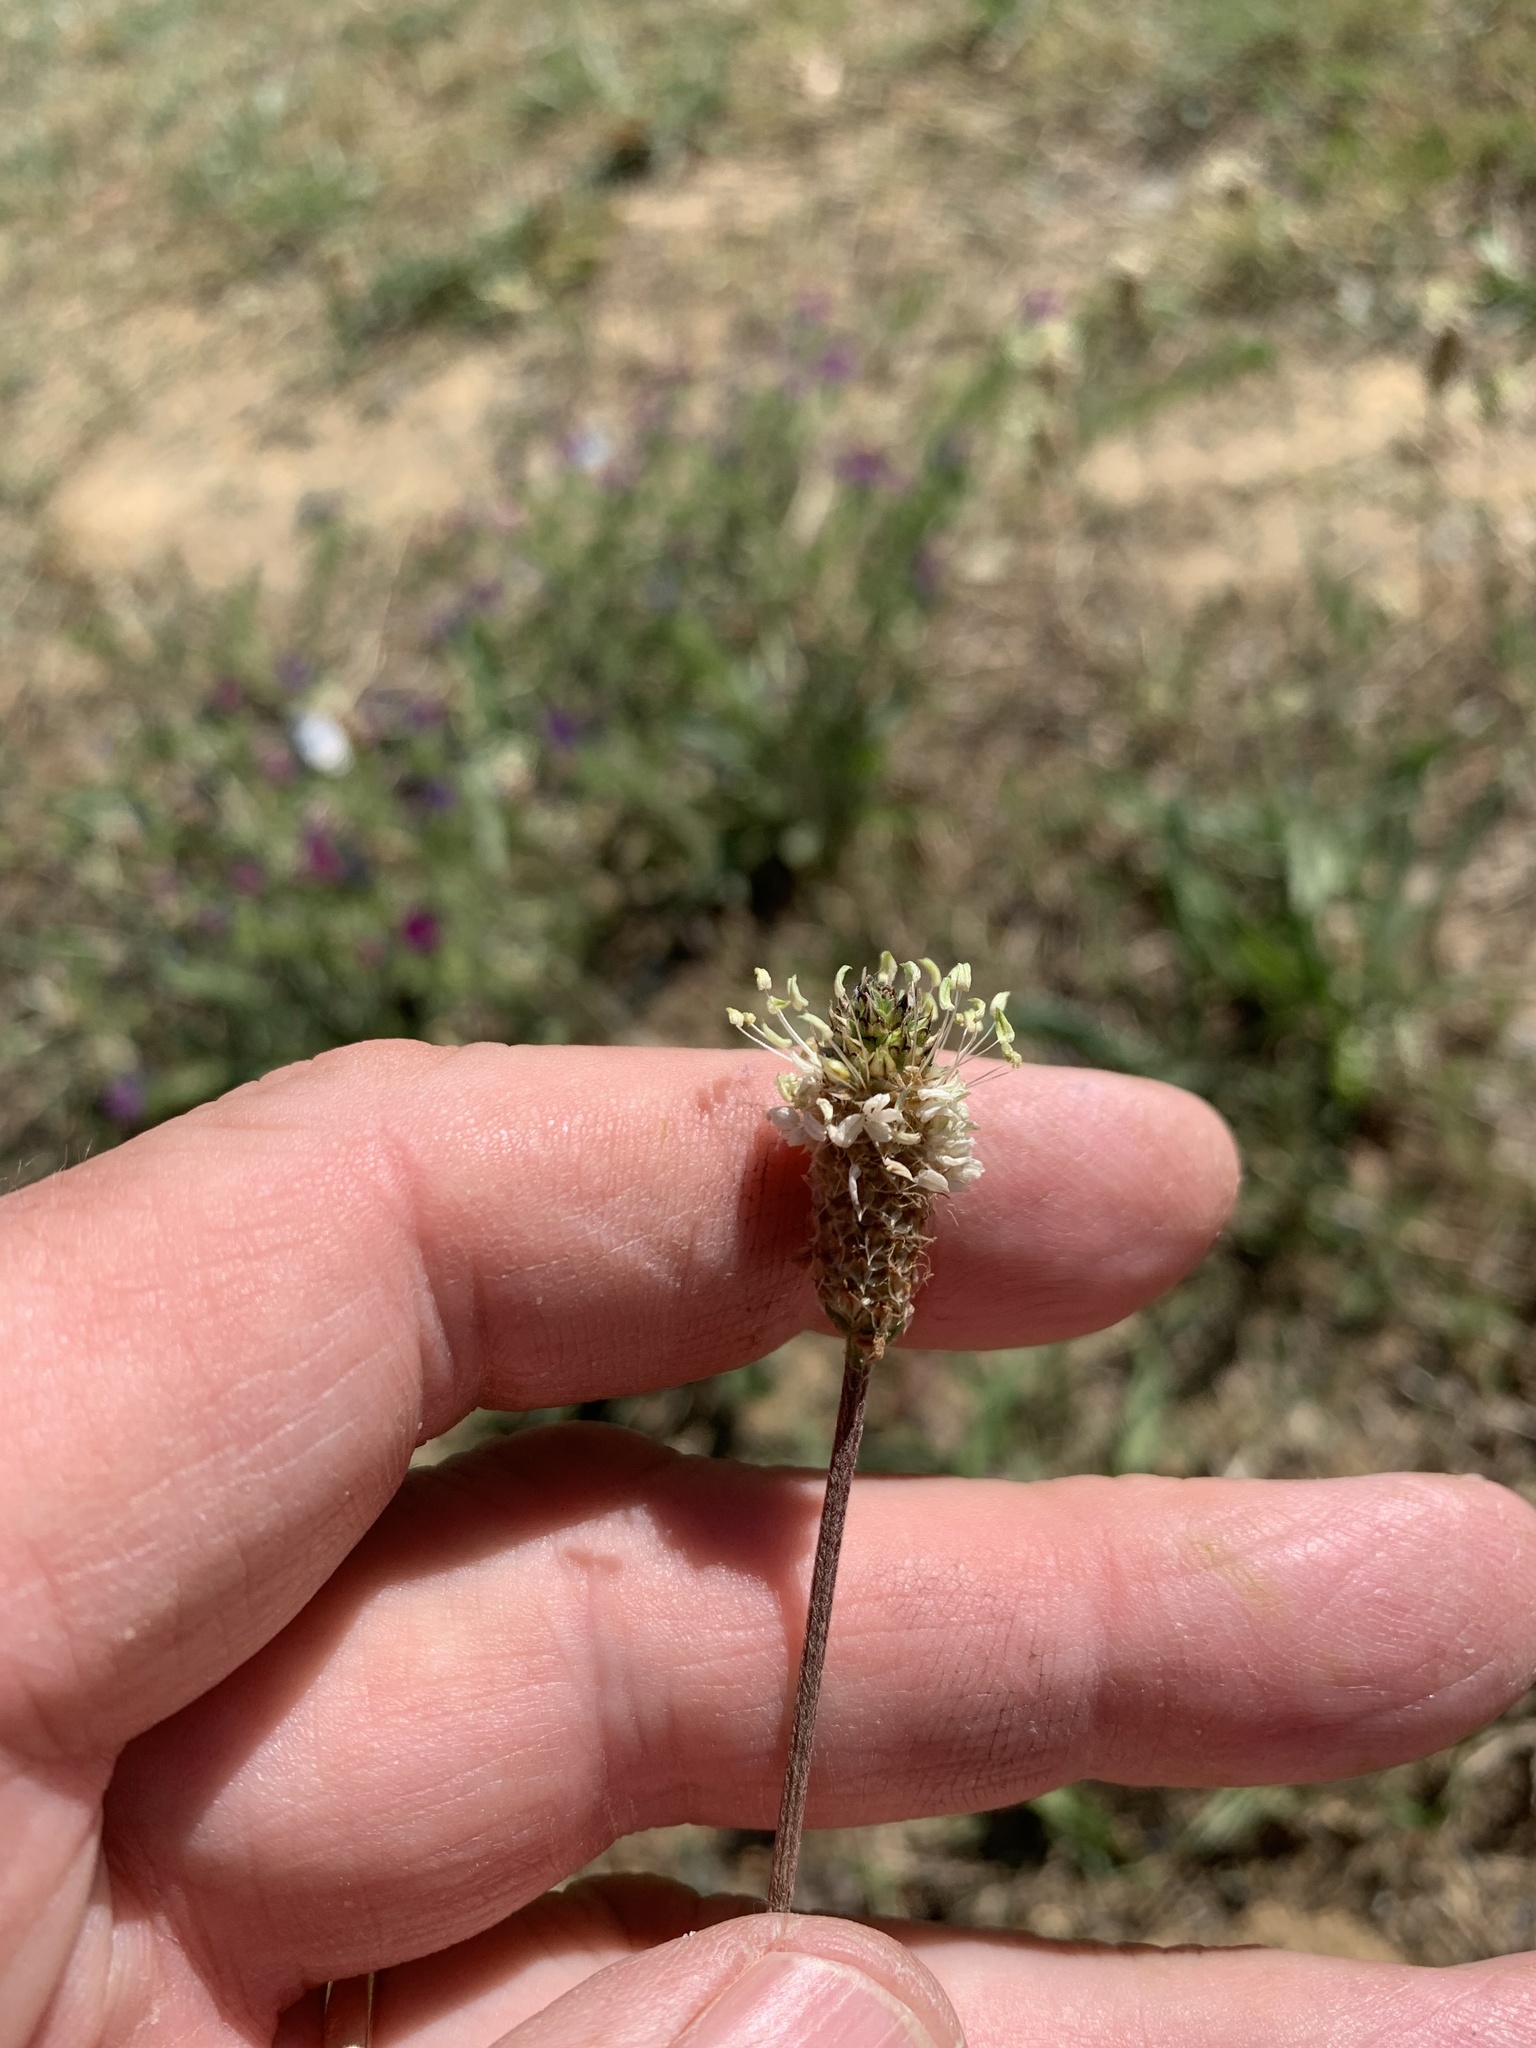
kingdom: Plantae
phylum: Tracheophyta
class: Magnoliopsida
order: Lamiales
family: Plantaginaceae
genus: Plantago
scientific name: Plantago lanceolata
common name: Ribwort plantain
